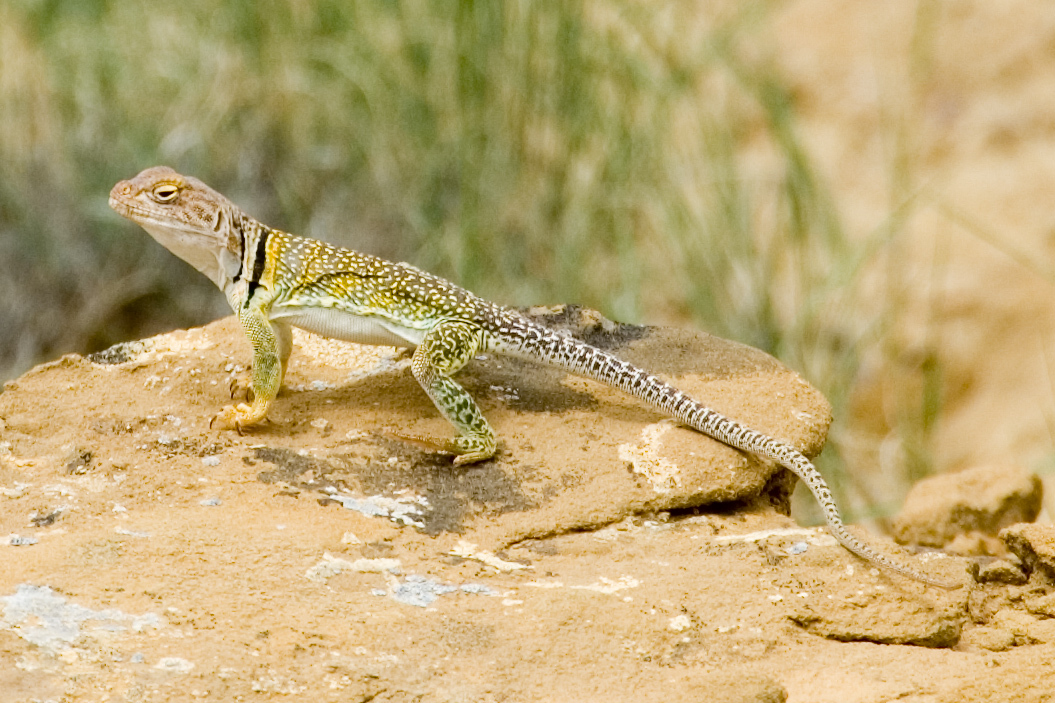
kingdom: Animalia
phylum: Chordata
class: Squamata
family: Crotaphytidae
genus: Crotaphytus
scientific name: Crotaphytus collaris
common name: Collared lizard
